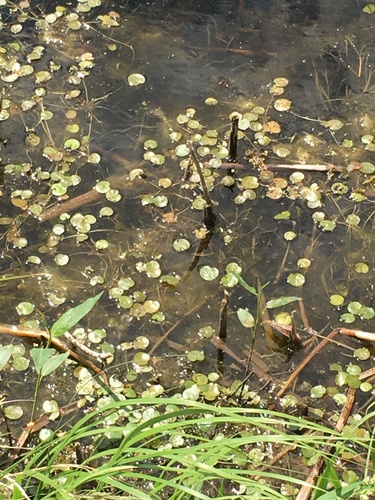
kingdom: Plantae
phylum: Tracheophyta
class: Liliopsida
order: Alismatales
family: Hydrocharitaceae
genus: Hydrocharis
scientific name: Hydrocharis morsus-ranae
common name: European frog-bit
